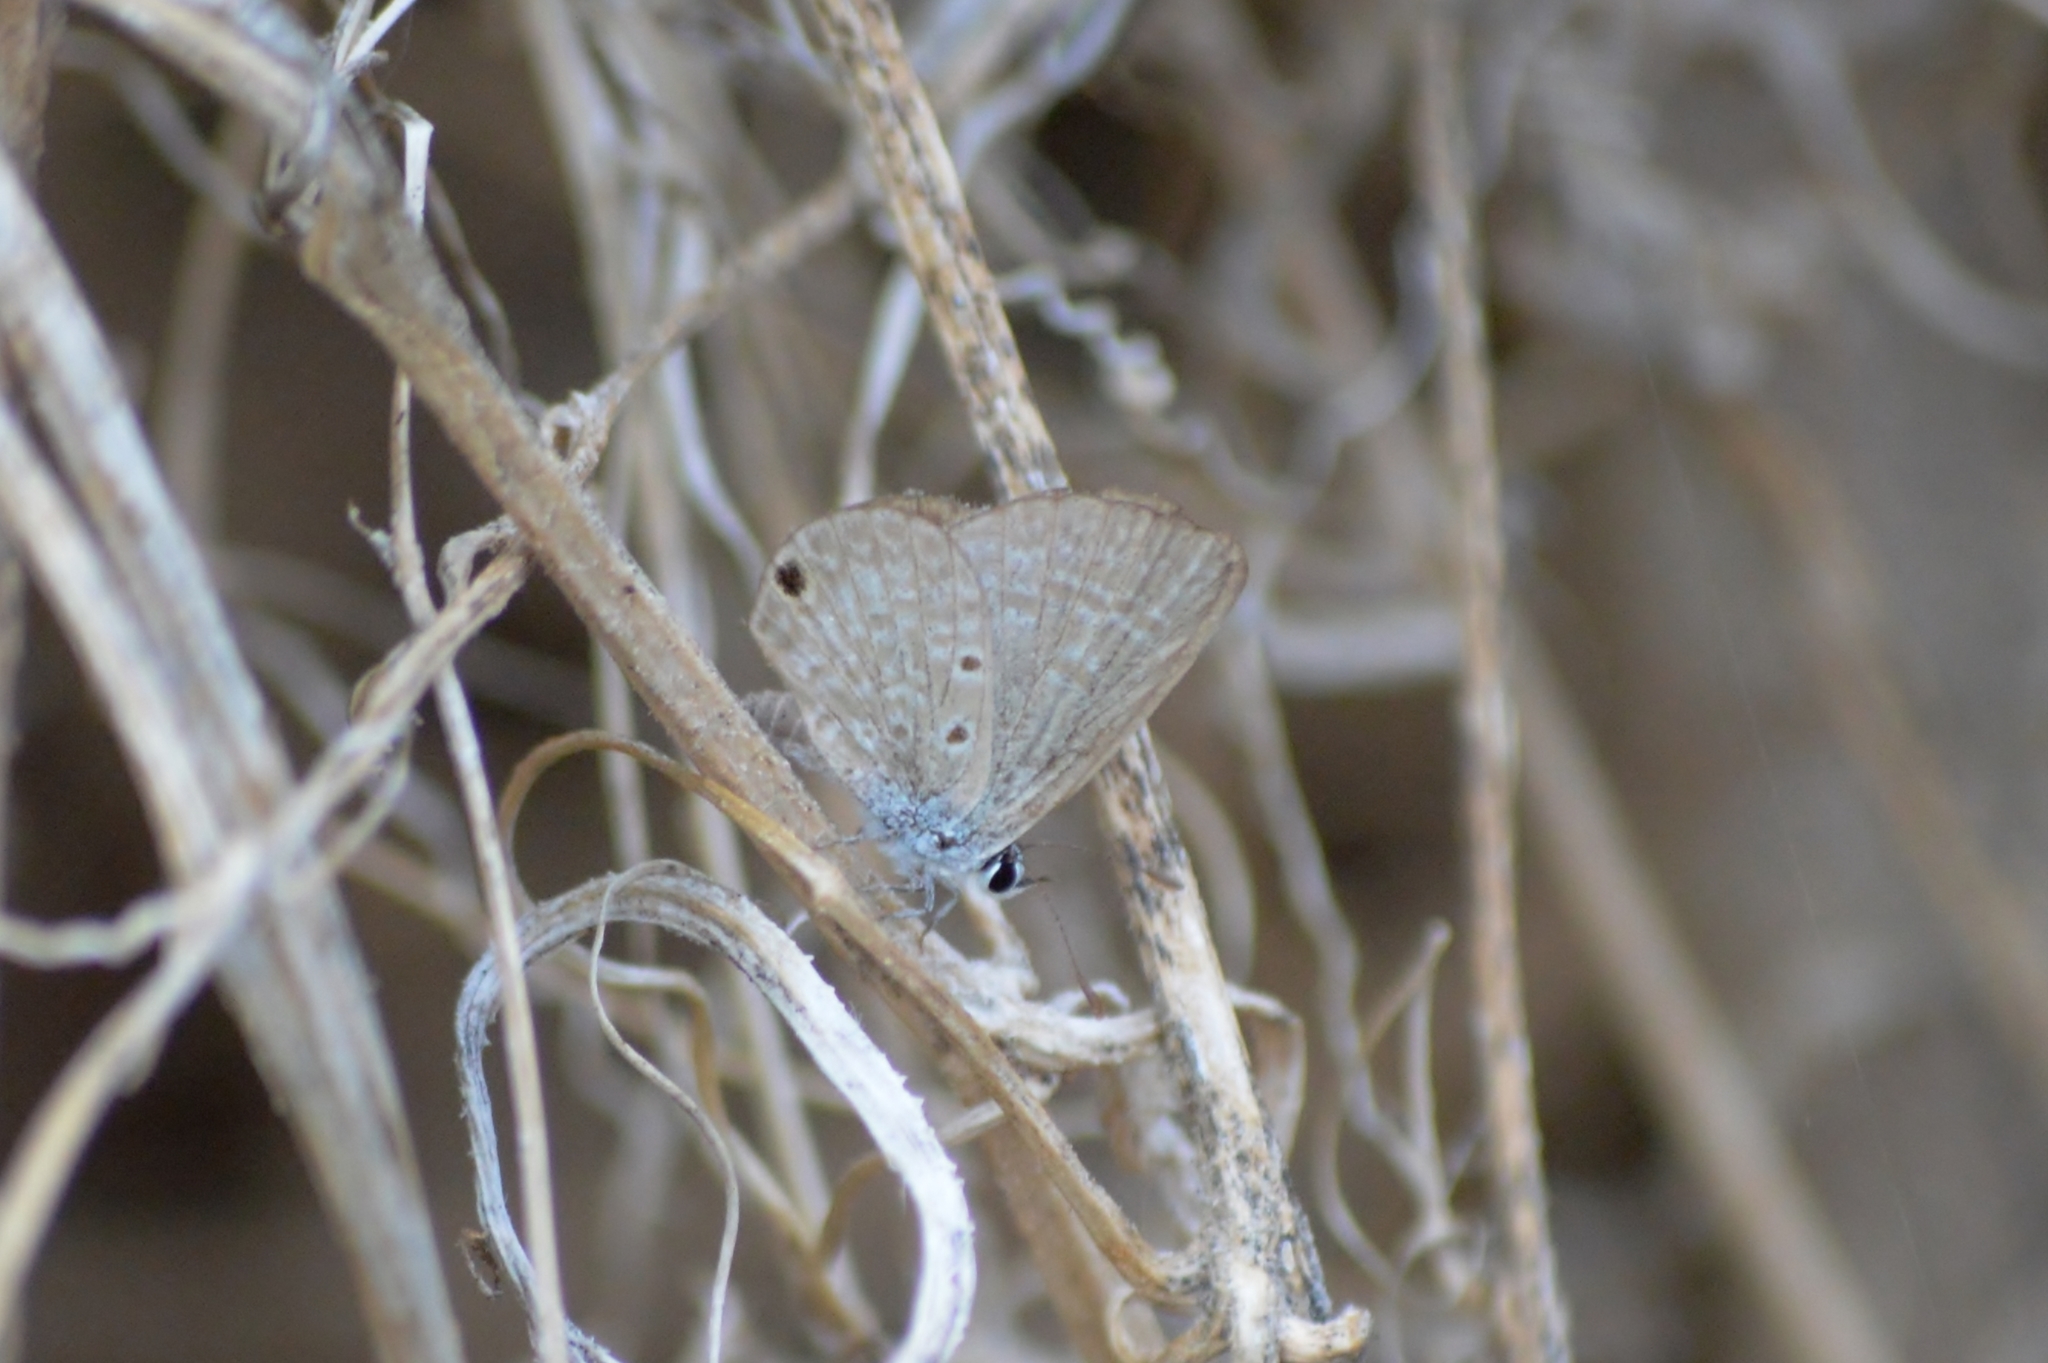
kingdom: Animalia
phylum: Arthropoda
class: Insecta
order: Lepidoptera
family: Lycaenidae
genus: Hemiargus
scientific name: Hemiargus hanno
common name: Common blue
